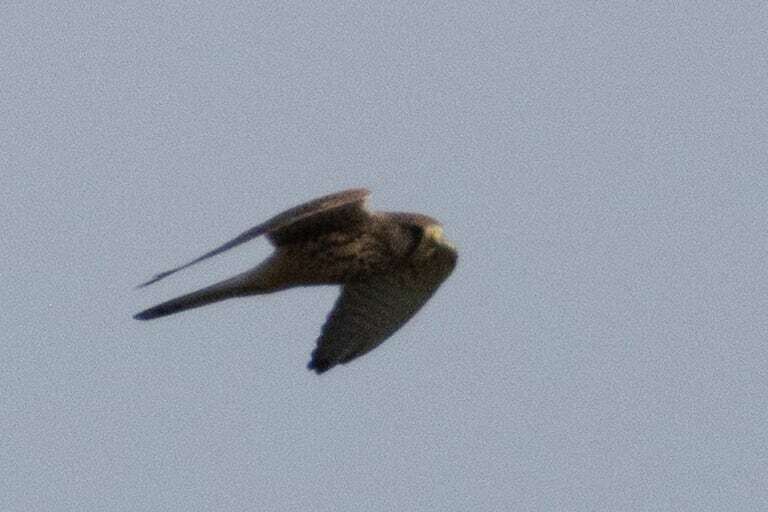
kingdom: Animalia
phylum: Chordata
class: Aves
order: Falconiformes
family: Falconidae
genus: Falco
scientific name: Falco tinnunculus
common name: Common kestrel
